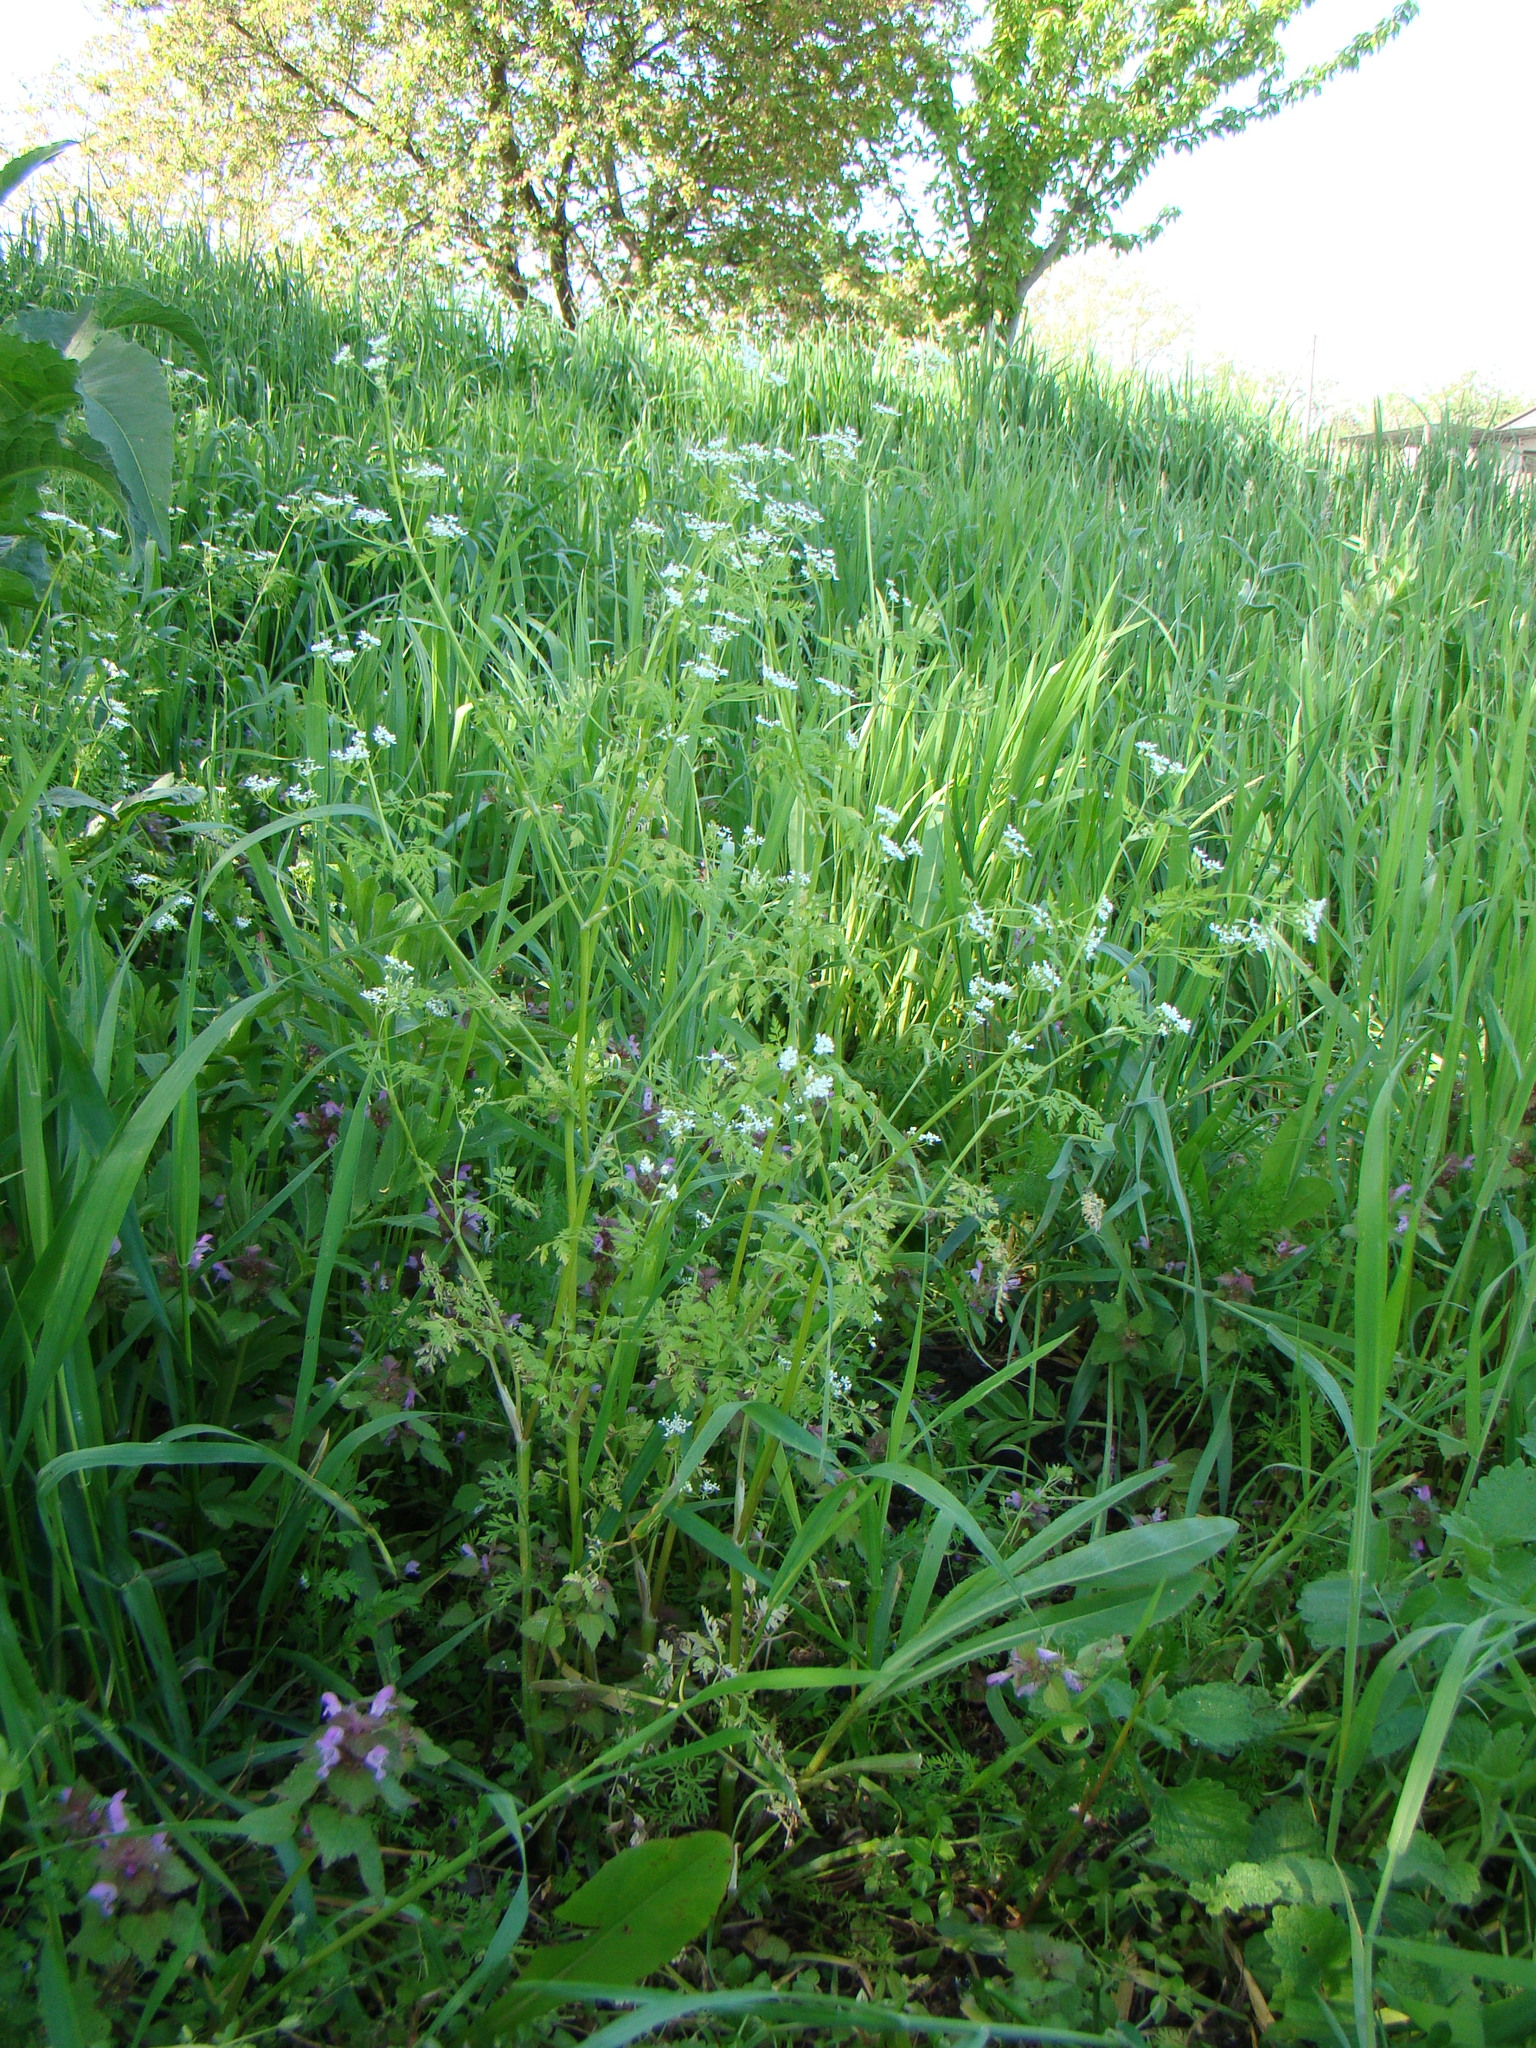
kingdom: Plantae
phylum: Tracheophyta
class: Magnoliopsida
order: Apiales
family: Apiaceae
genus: Anthriscus
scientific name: Anthriscus cerefolium
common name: Garden chervil
